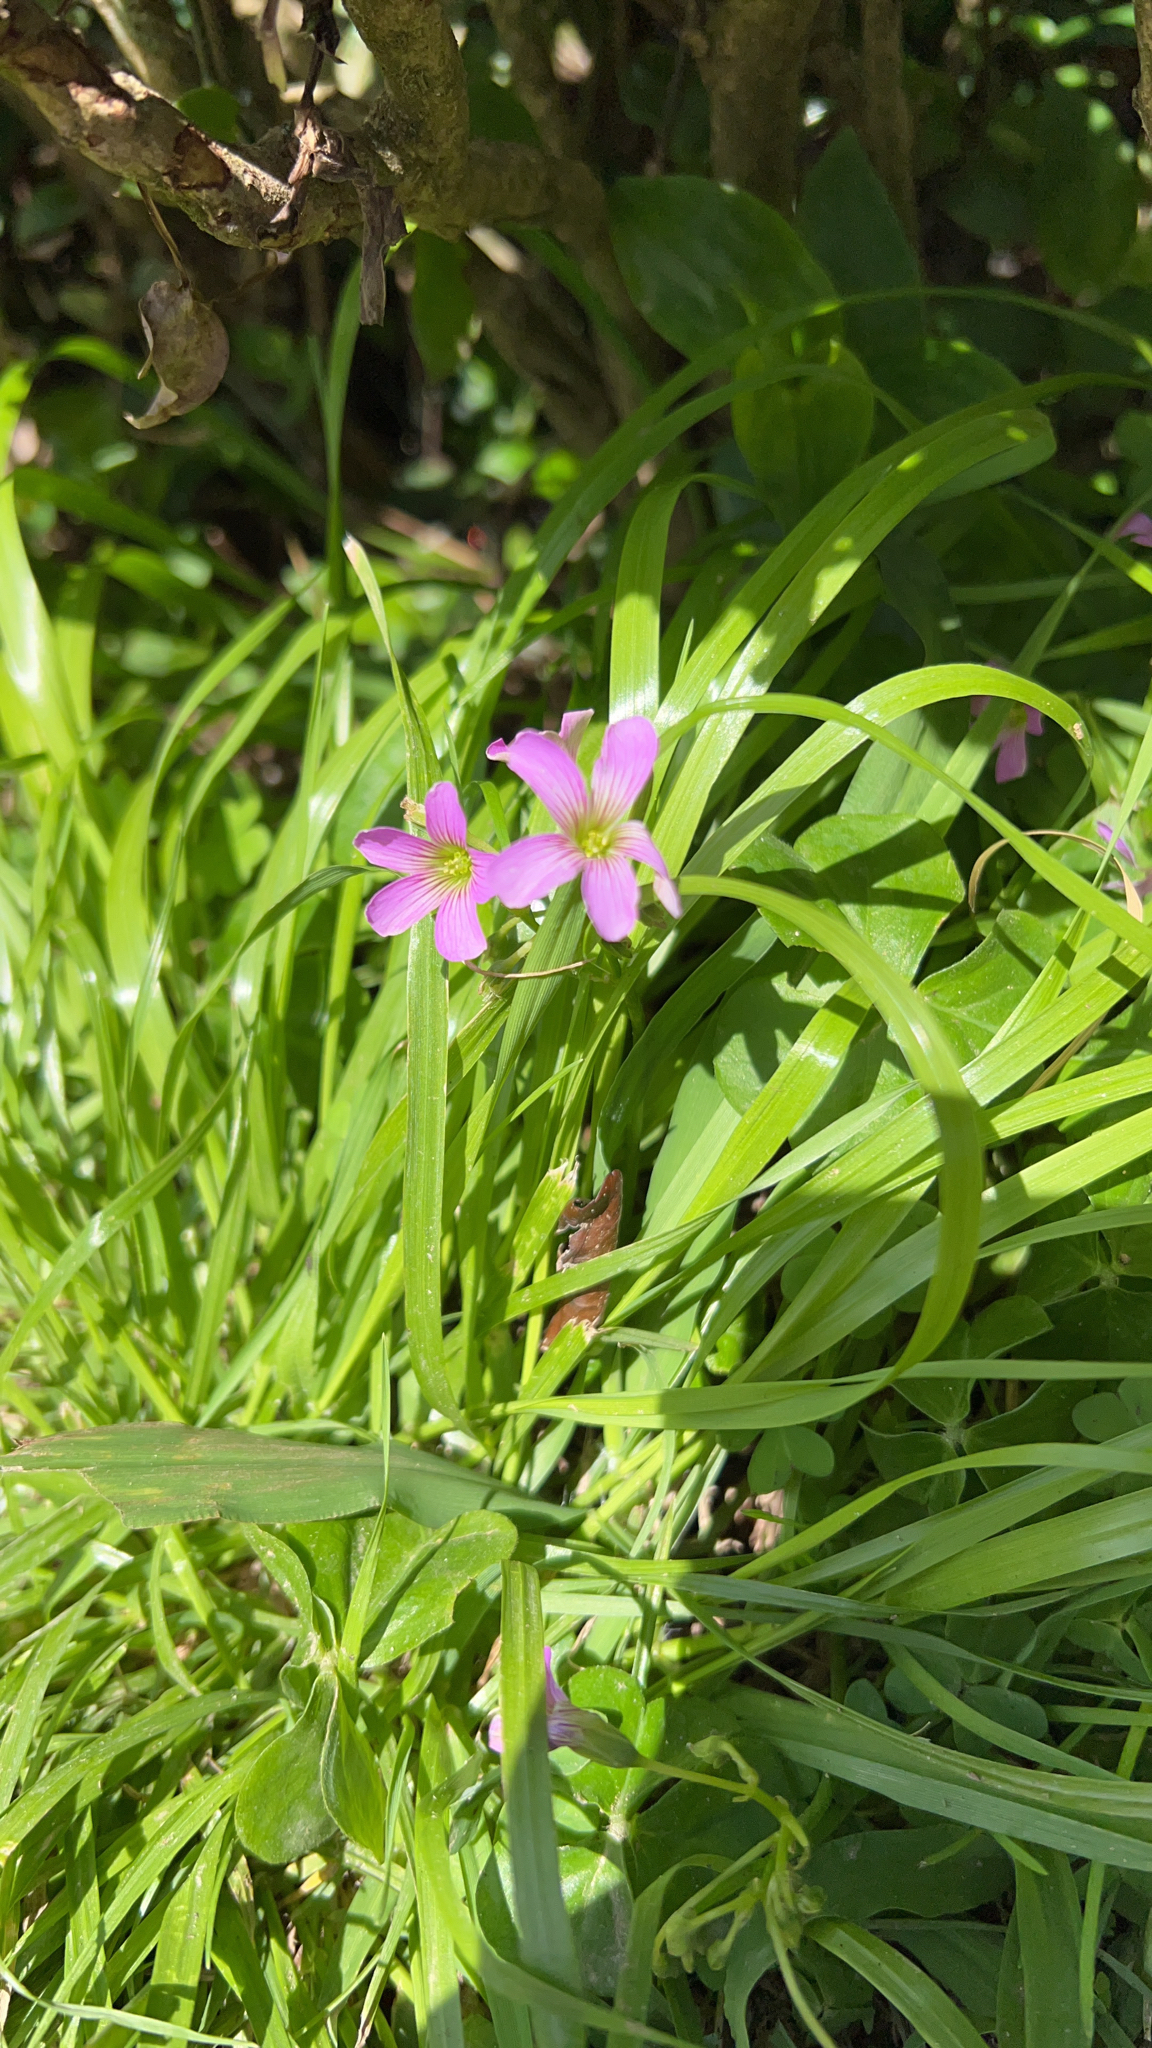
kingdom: Plantae
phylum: Tracheophyta
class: Magnoliopsida
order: Oxalidales
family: Oxalidaceae
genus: Oxalis
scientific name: Oxalis debilis
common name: Large-flowered pink-sorrel
